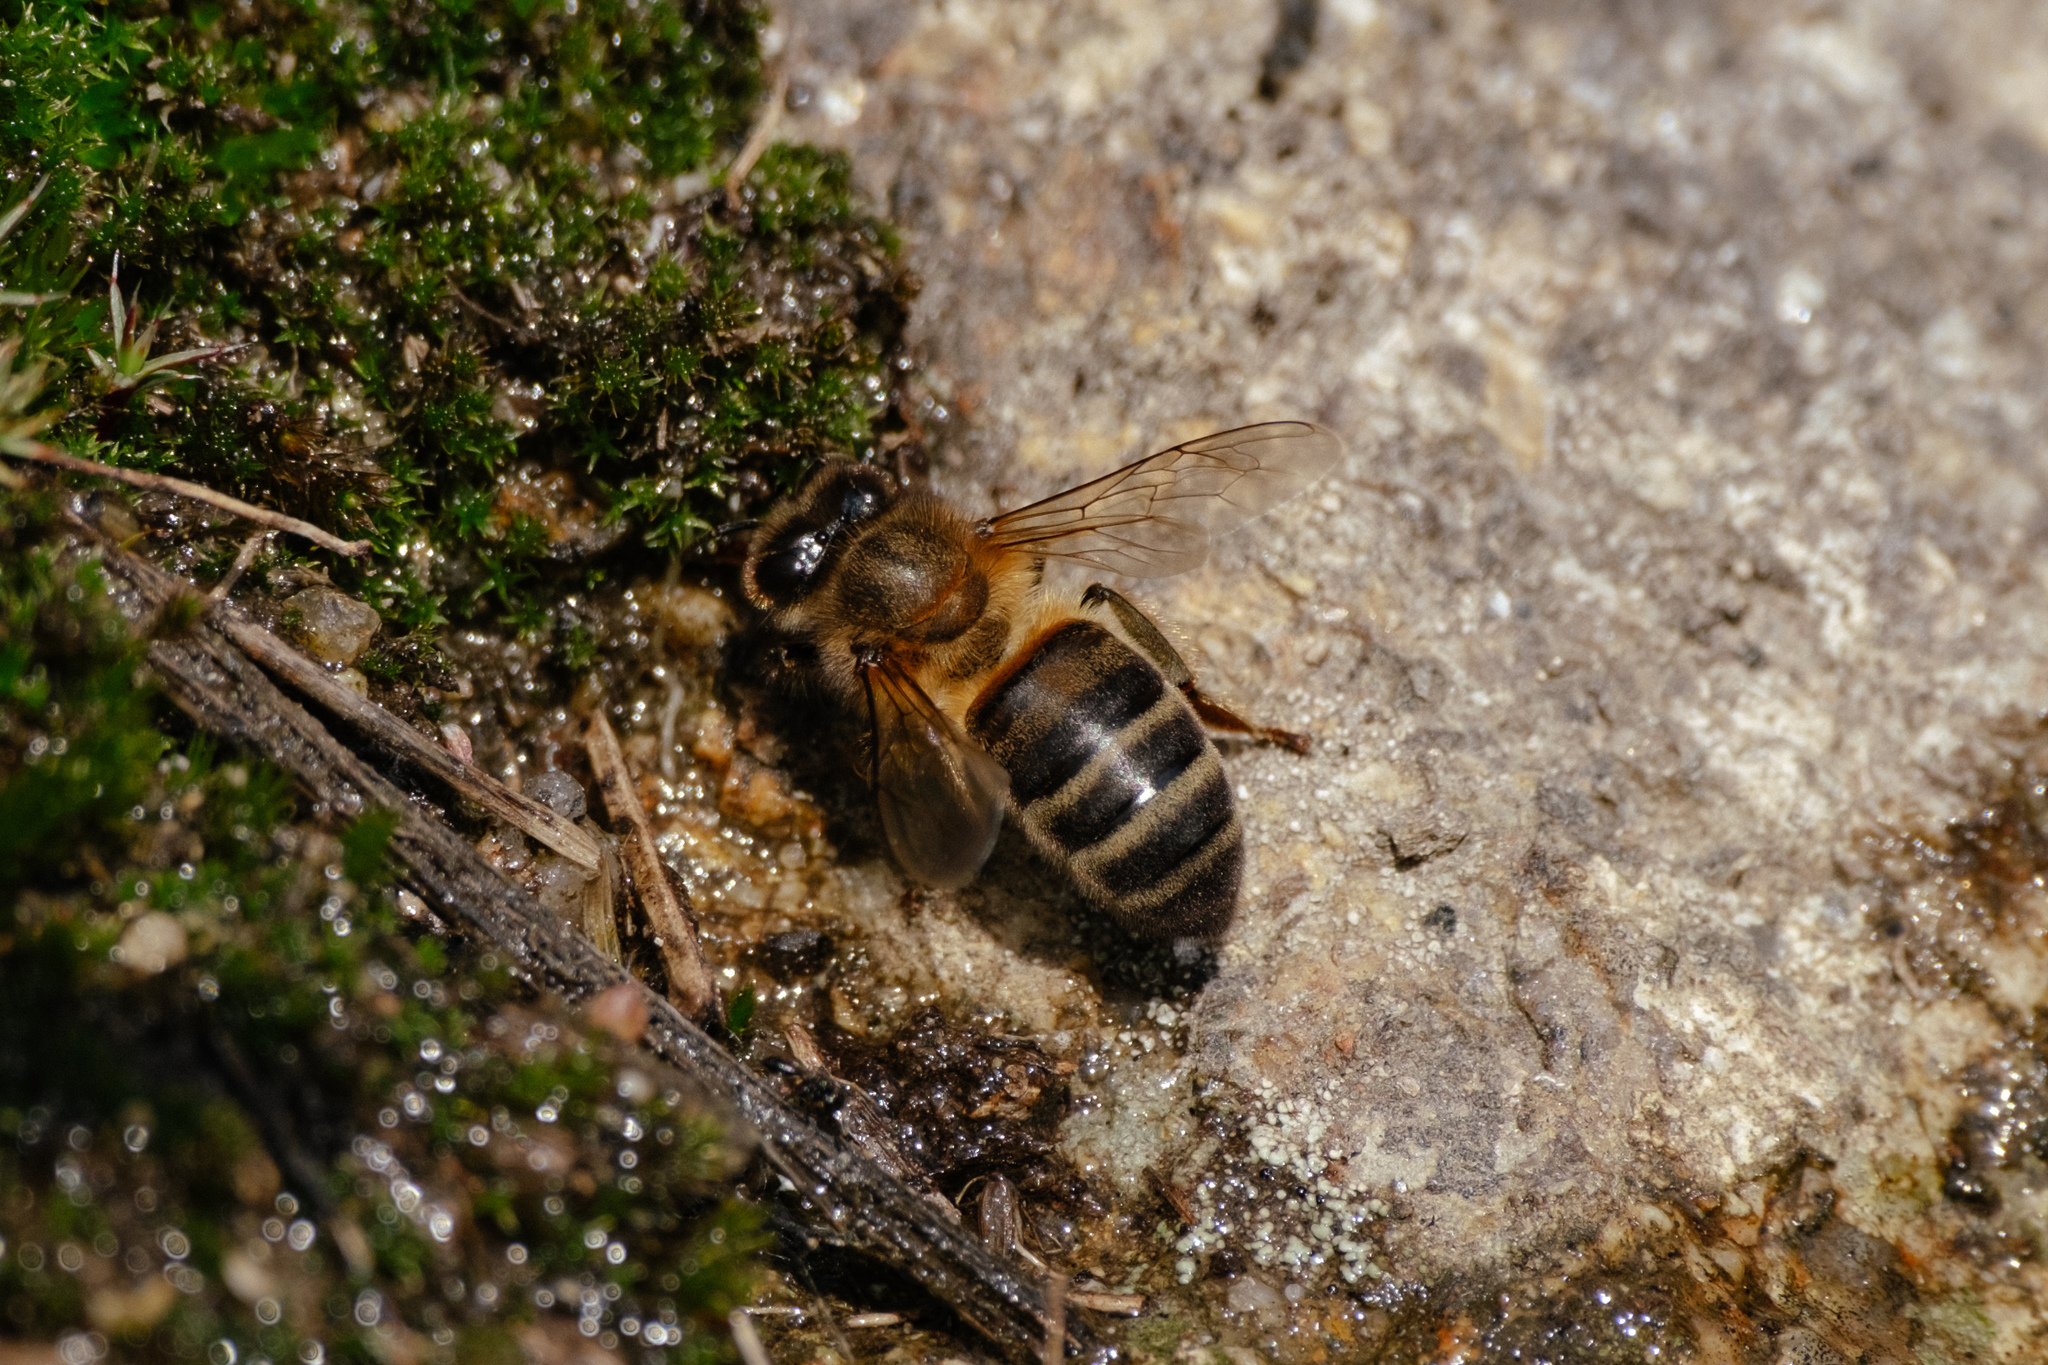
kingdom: Animalia
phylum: Arthropoda
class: Insecta
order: Hymenoptera
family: Apidae
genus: Apis
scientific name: Apis mellifera
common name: Honey bee
